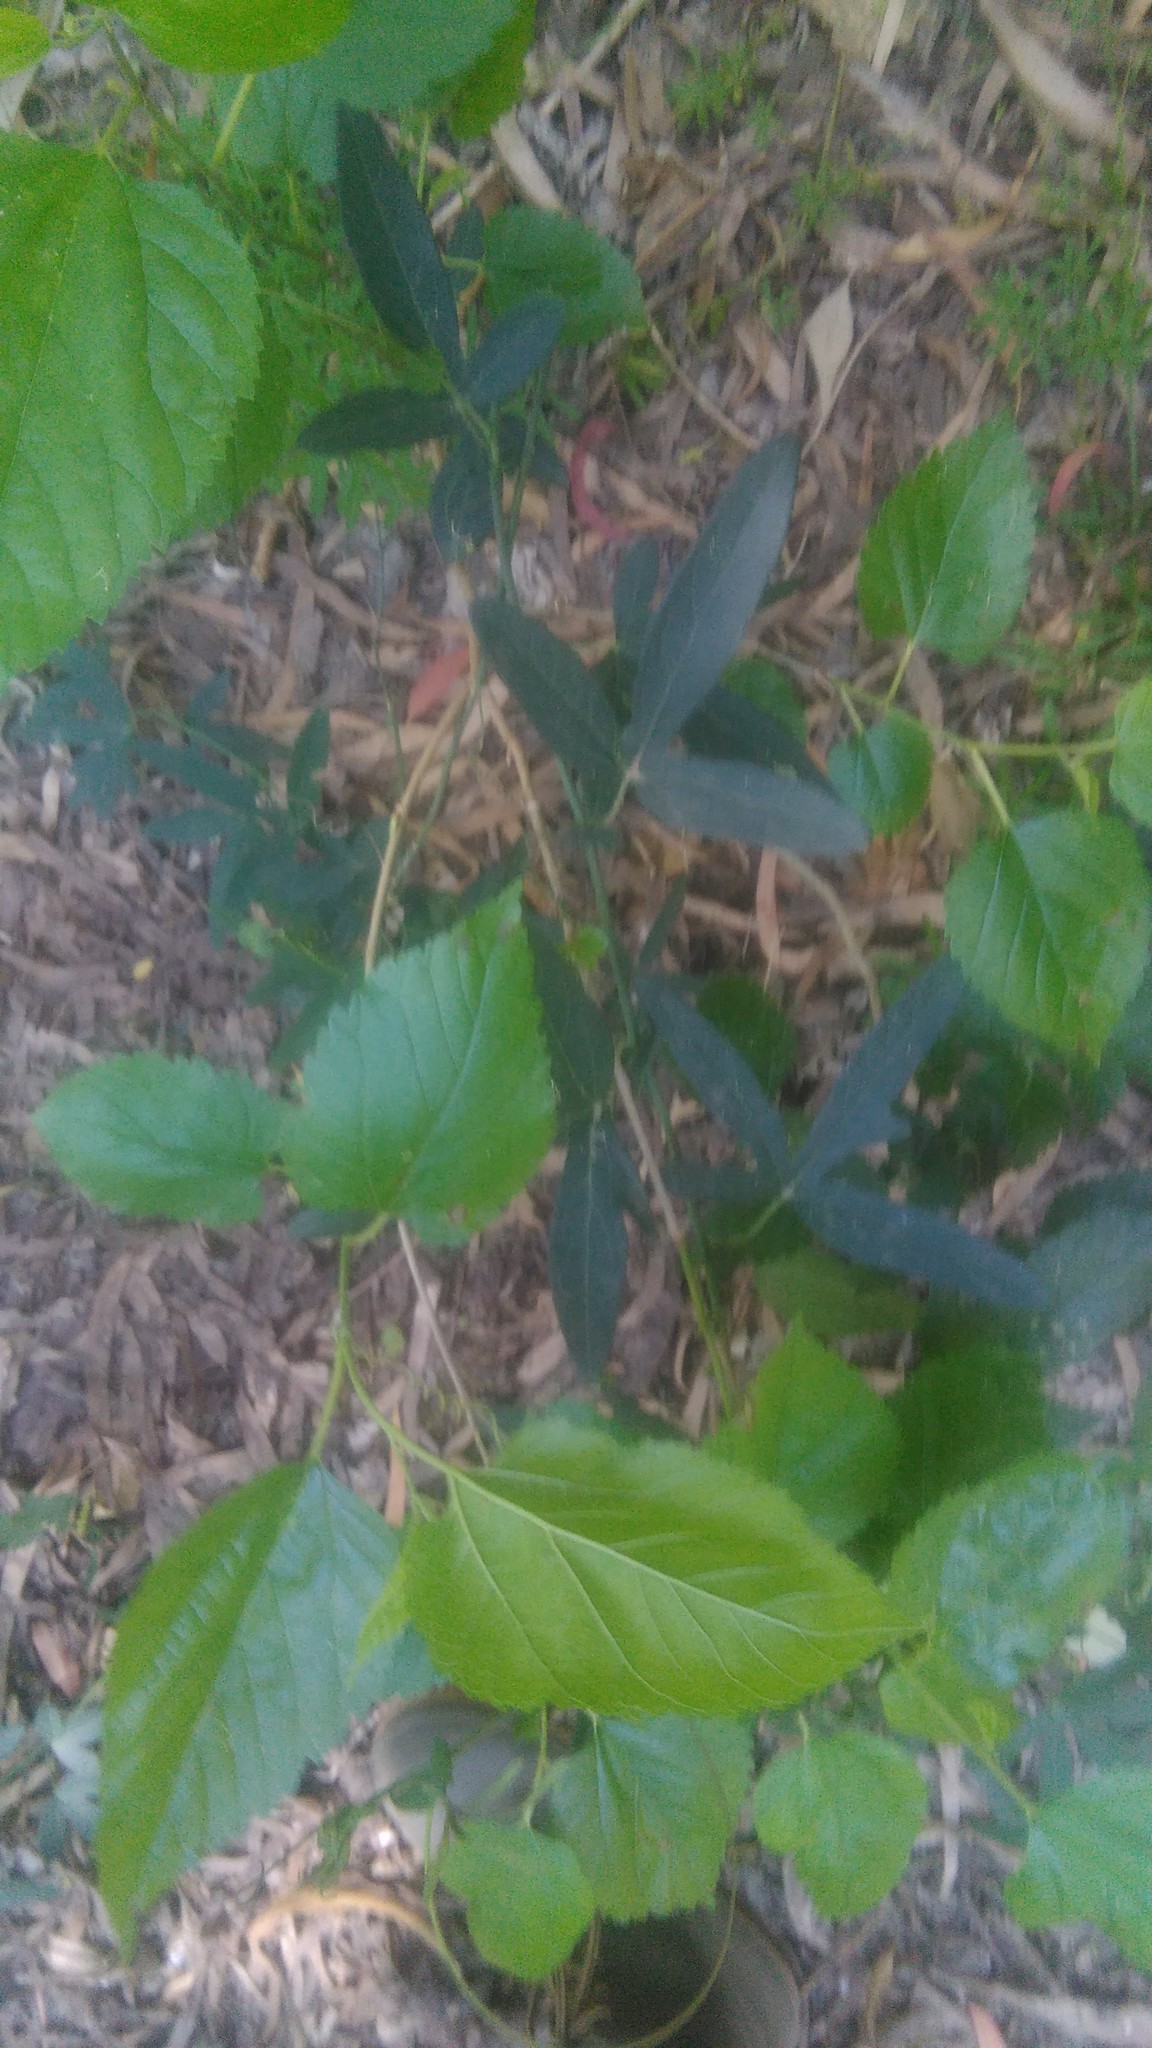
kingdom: Plantae
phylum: Tracheophyta
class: Magnoliopsida
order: Malpighiales
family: Passifloraceae
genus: Passiflora
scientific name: Passiflora caerulea
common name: Blue passionflower
